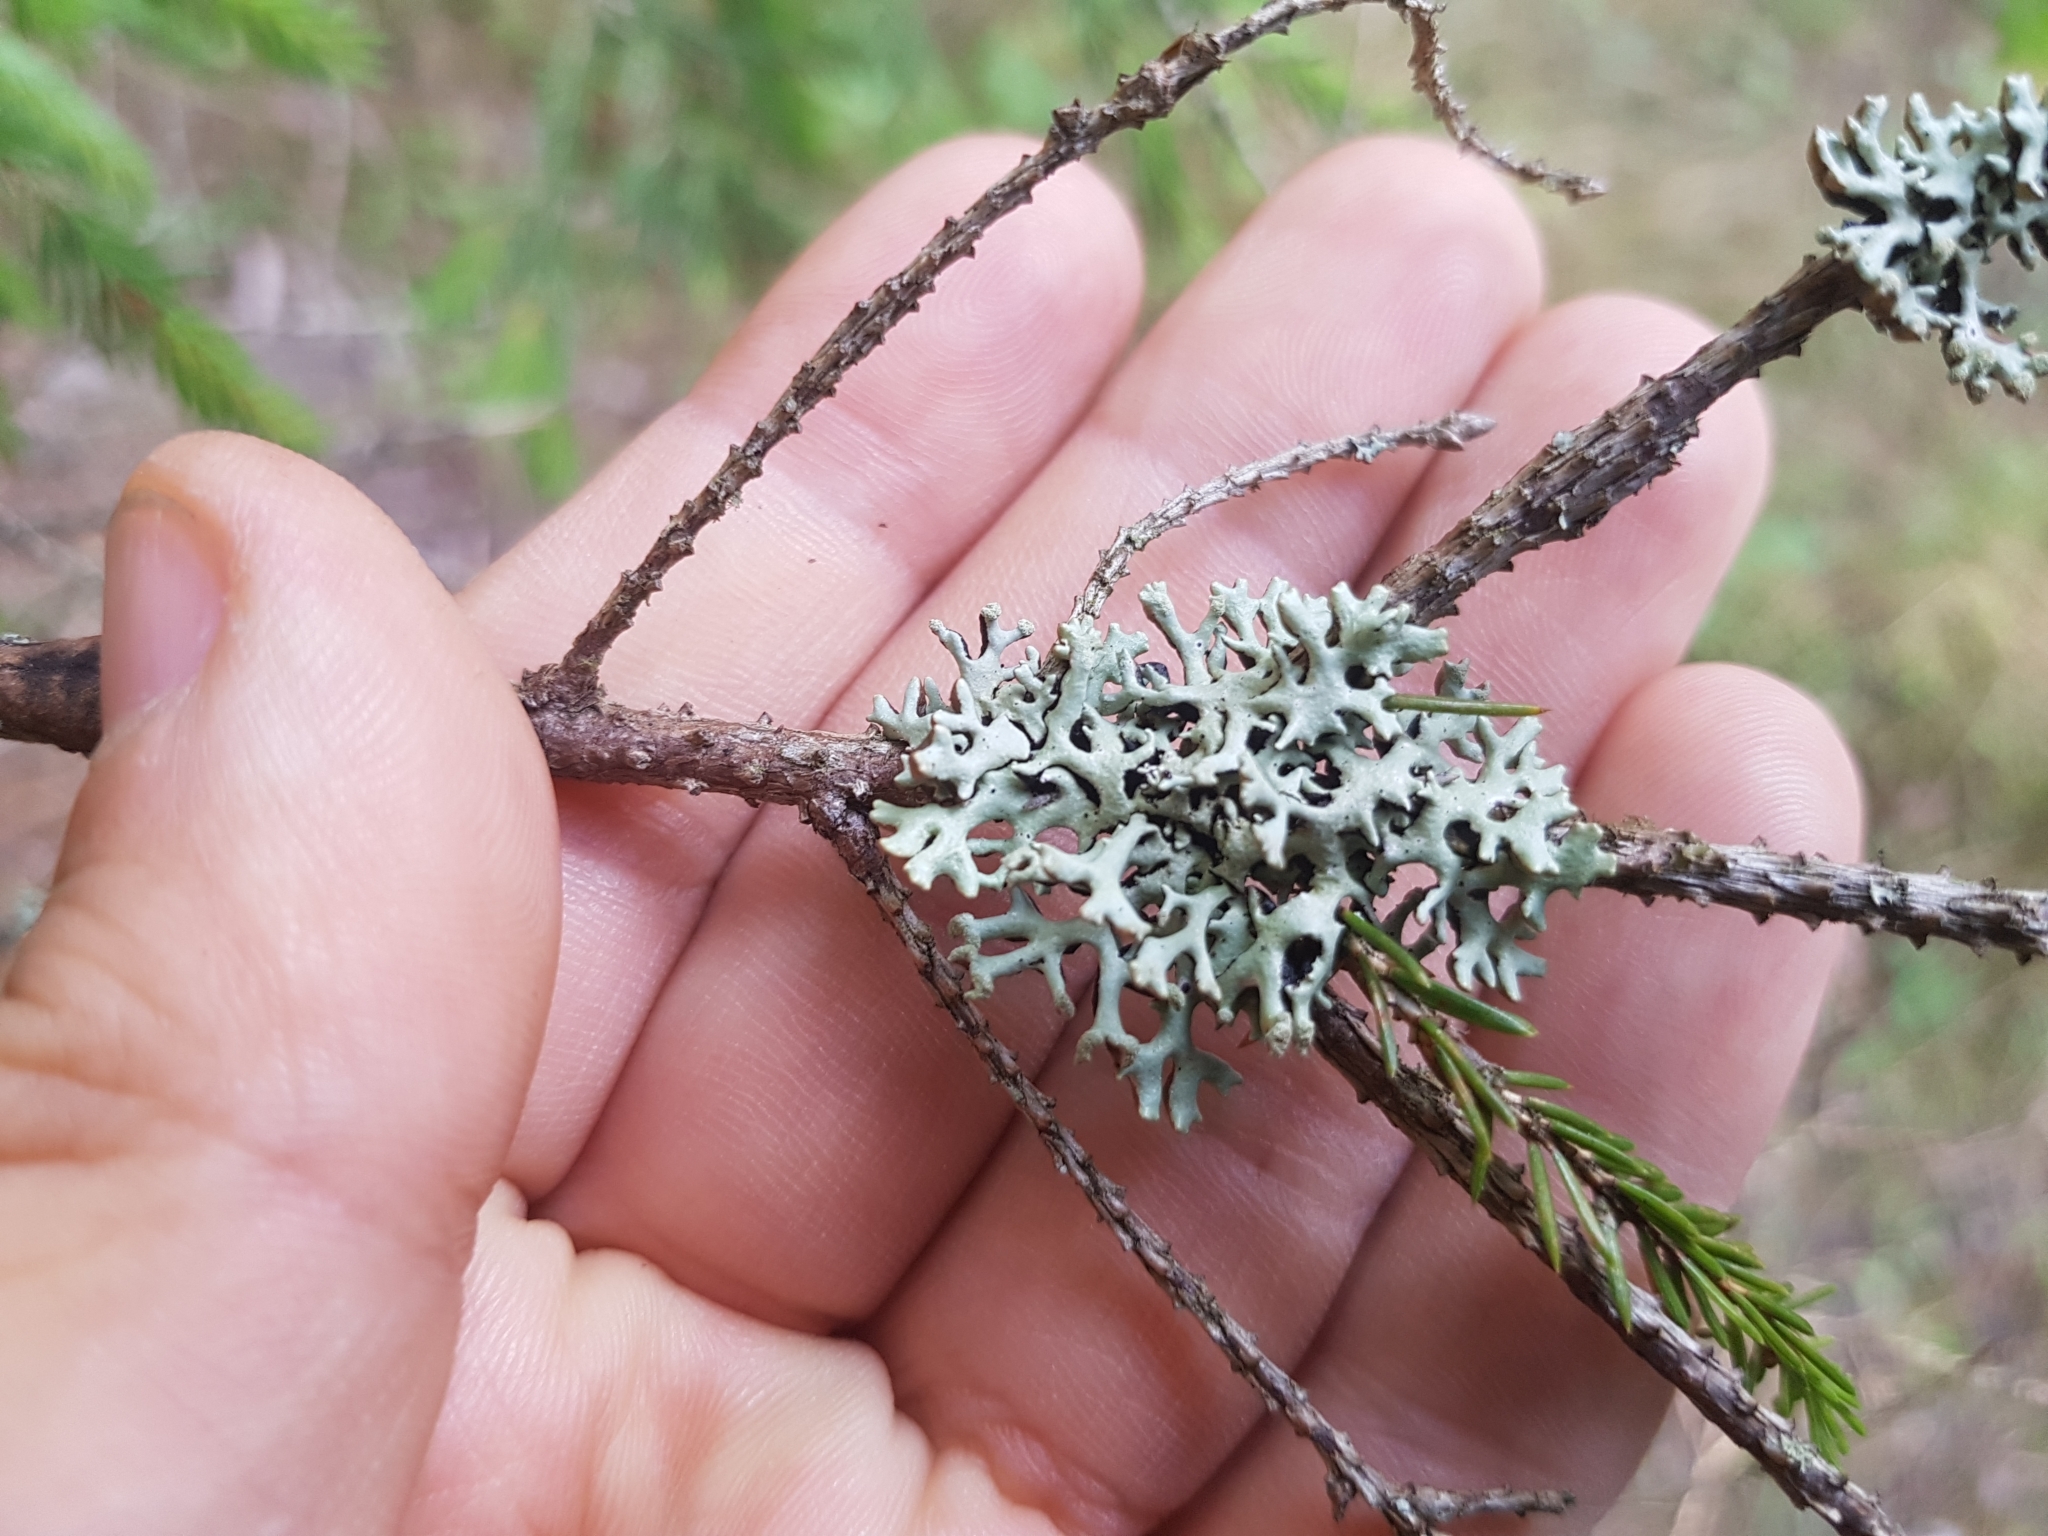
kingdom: Fungi
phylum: Ascomycota
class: Lecanoromycetes
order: Lecanorales
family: Parmeliaceae
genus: Hypogymnia
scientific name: Hypogymnia tubulosa
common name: Powder-headed tube lichen
